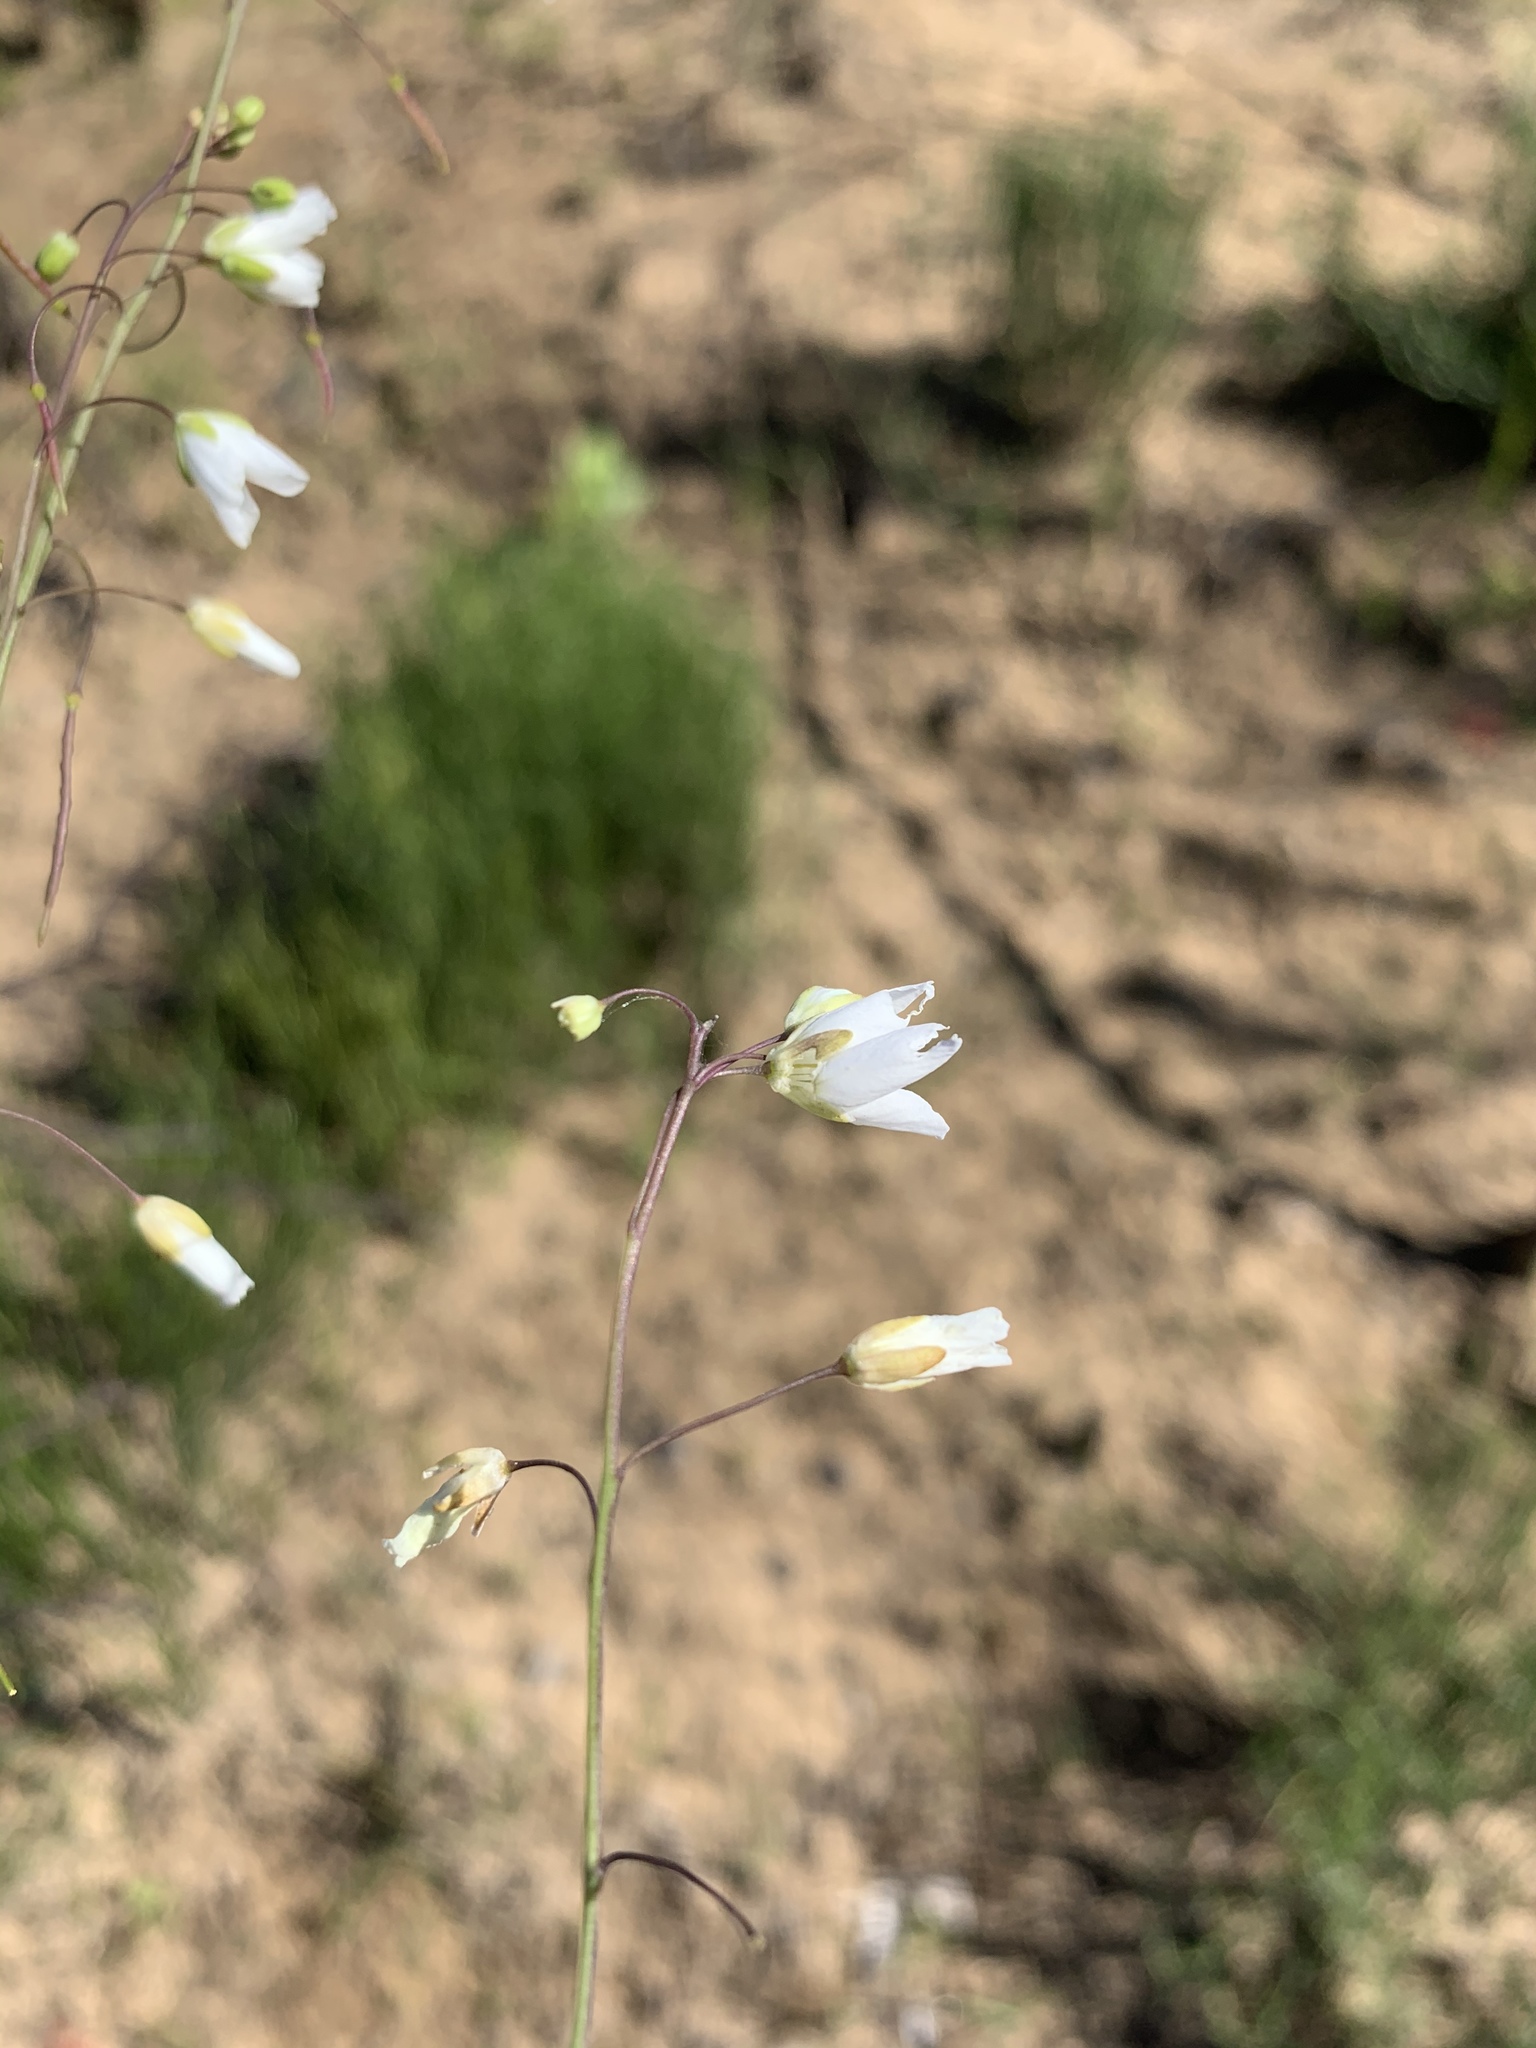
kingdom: Plantae
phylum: Tracheophyta
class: Magnoliopsida
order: Brassicales
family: Brassicaceae
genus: Heliophila
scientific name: Heliophila meyeri
